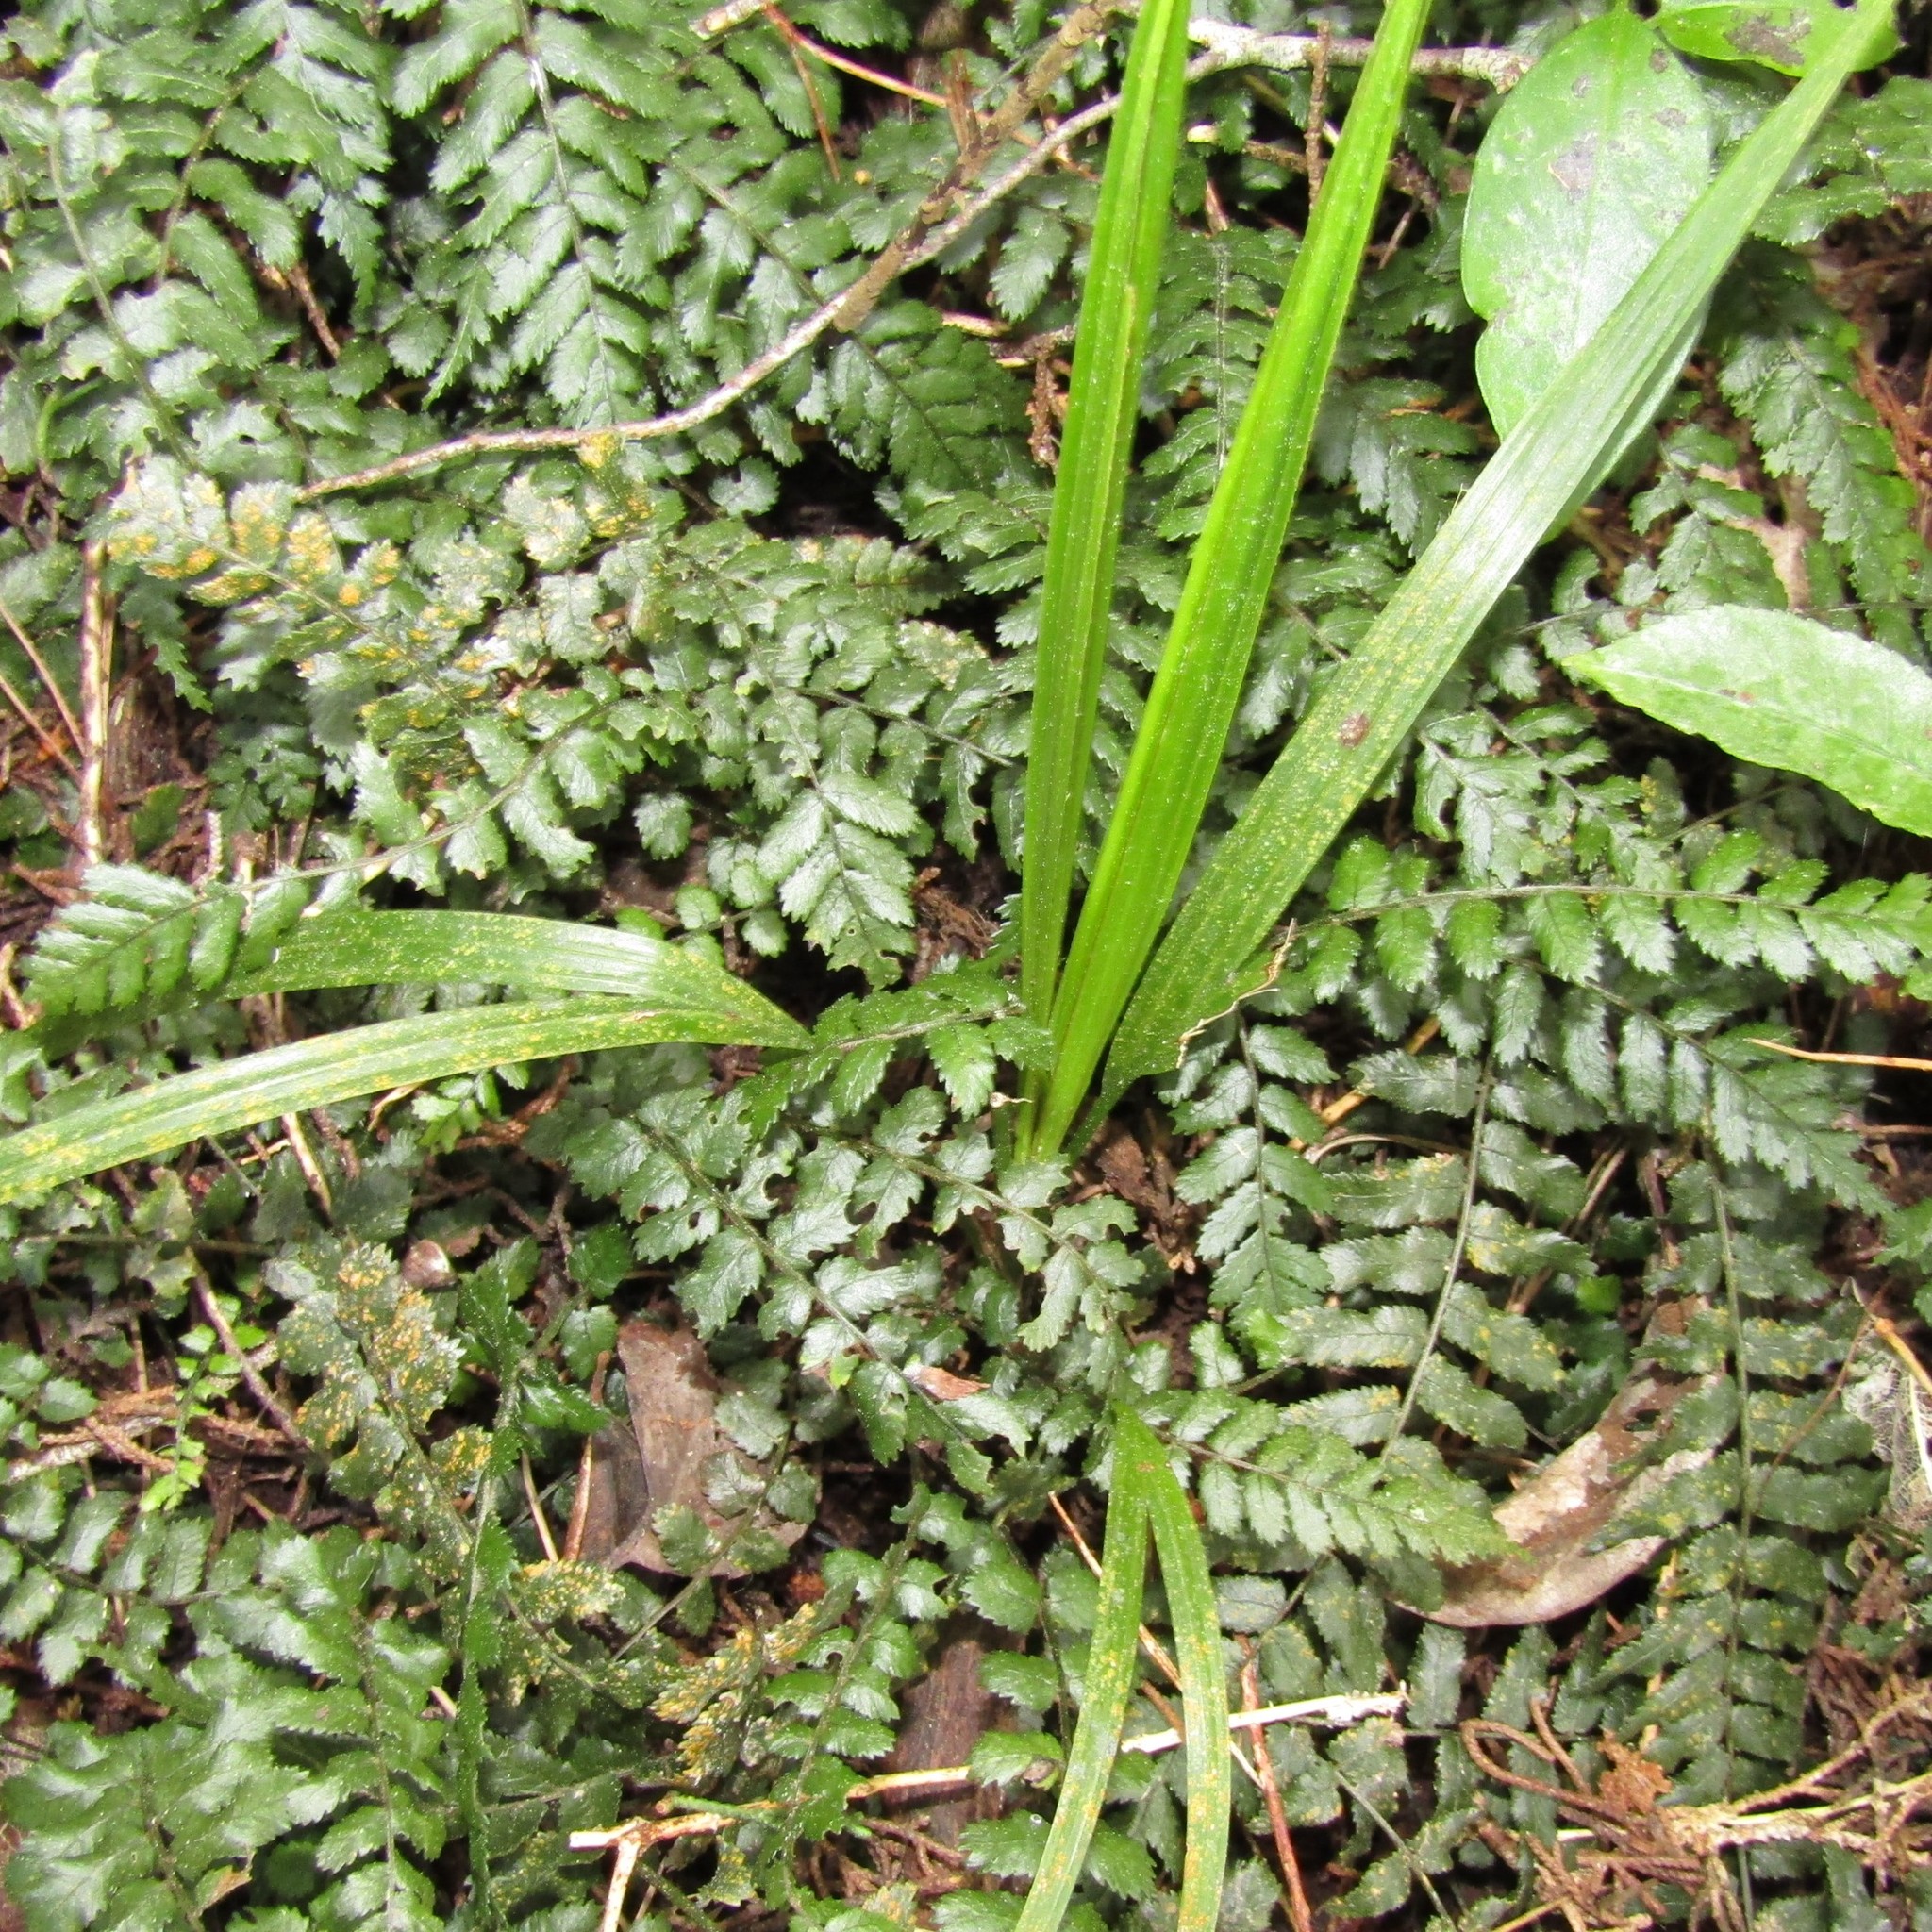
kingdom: Plantae
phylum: Tracheophyta
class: Liliopsida
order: Arecales
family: Arecaceae
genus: Rhopalostylis
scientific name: Rhopalostylis sapida
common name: Feather-duster palm
